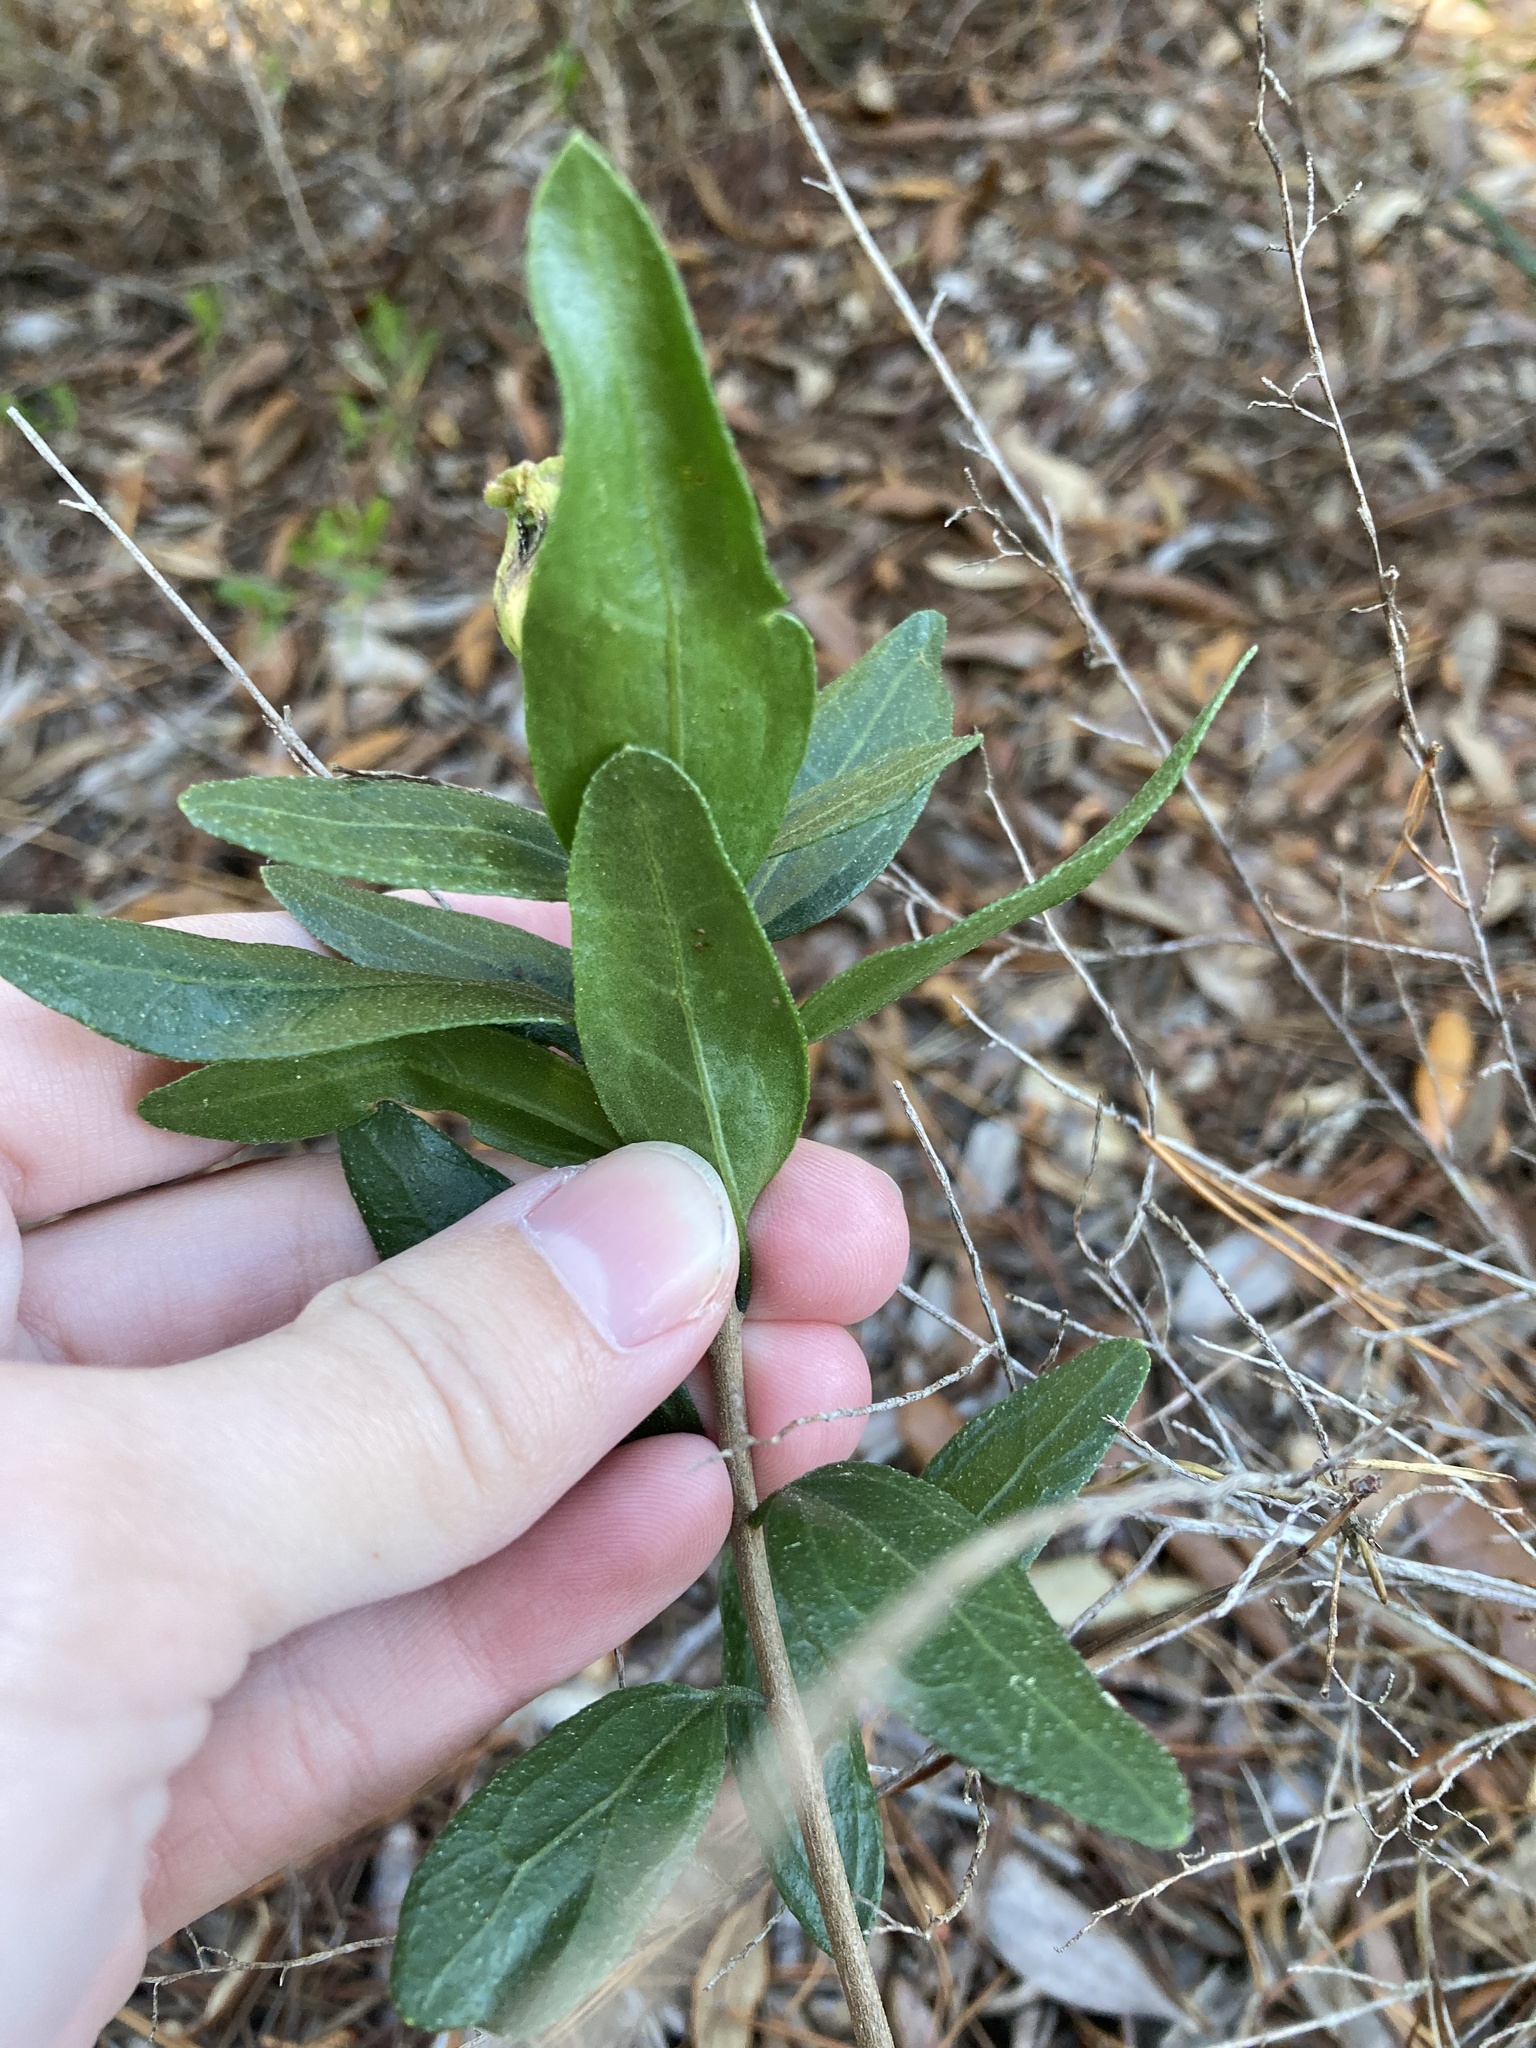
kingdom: Plantae
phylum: Tracheophyta
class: Magnoliopsida
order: Asterales
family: Asteraceae
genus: Palafoxia
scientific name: Palafoxia feayi
